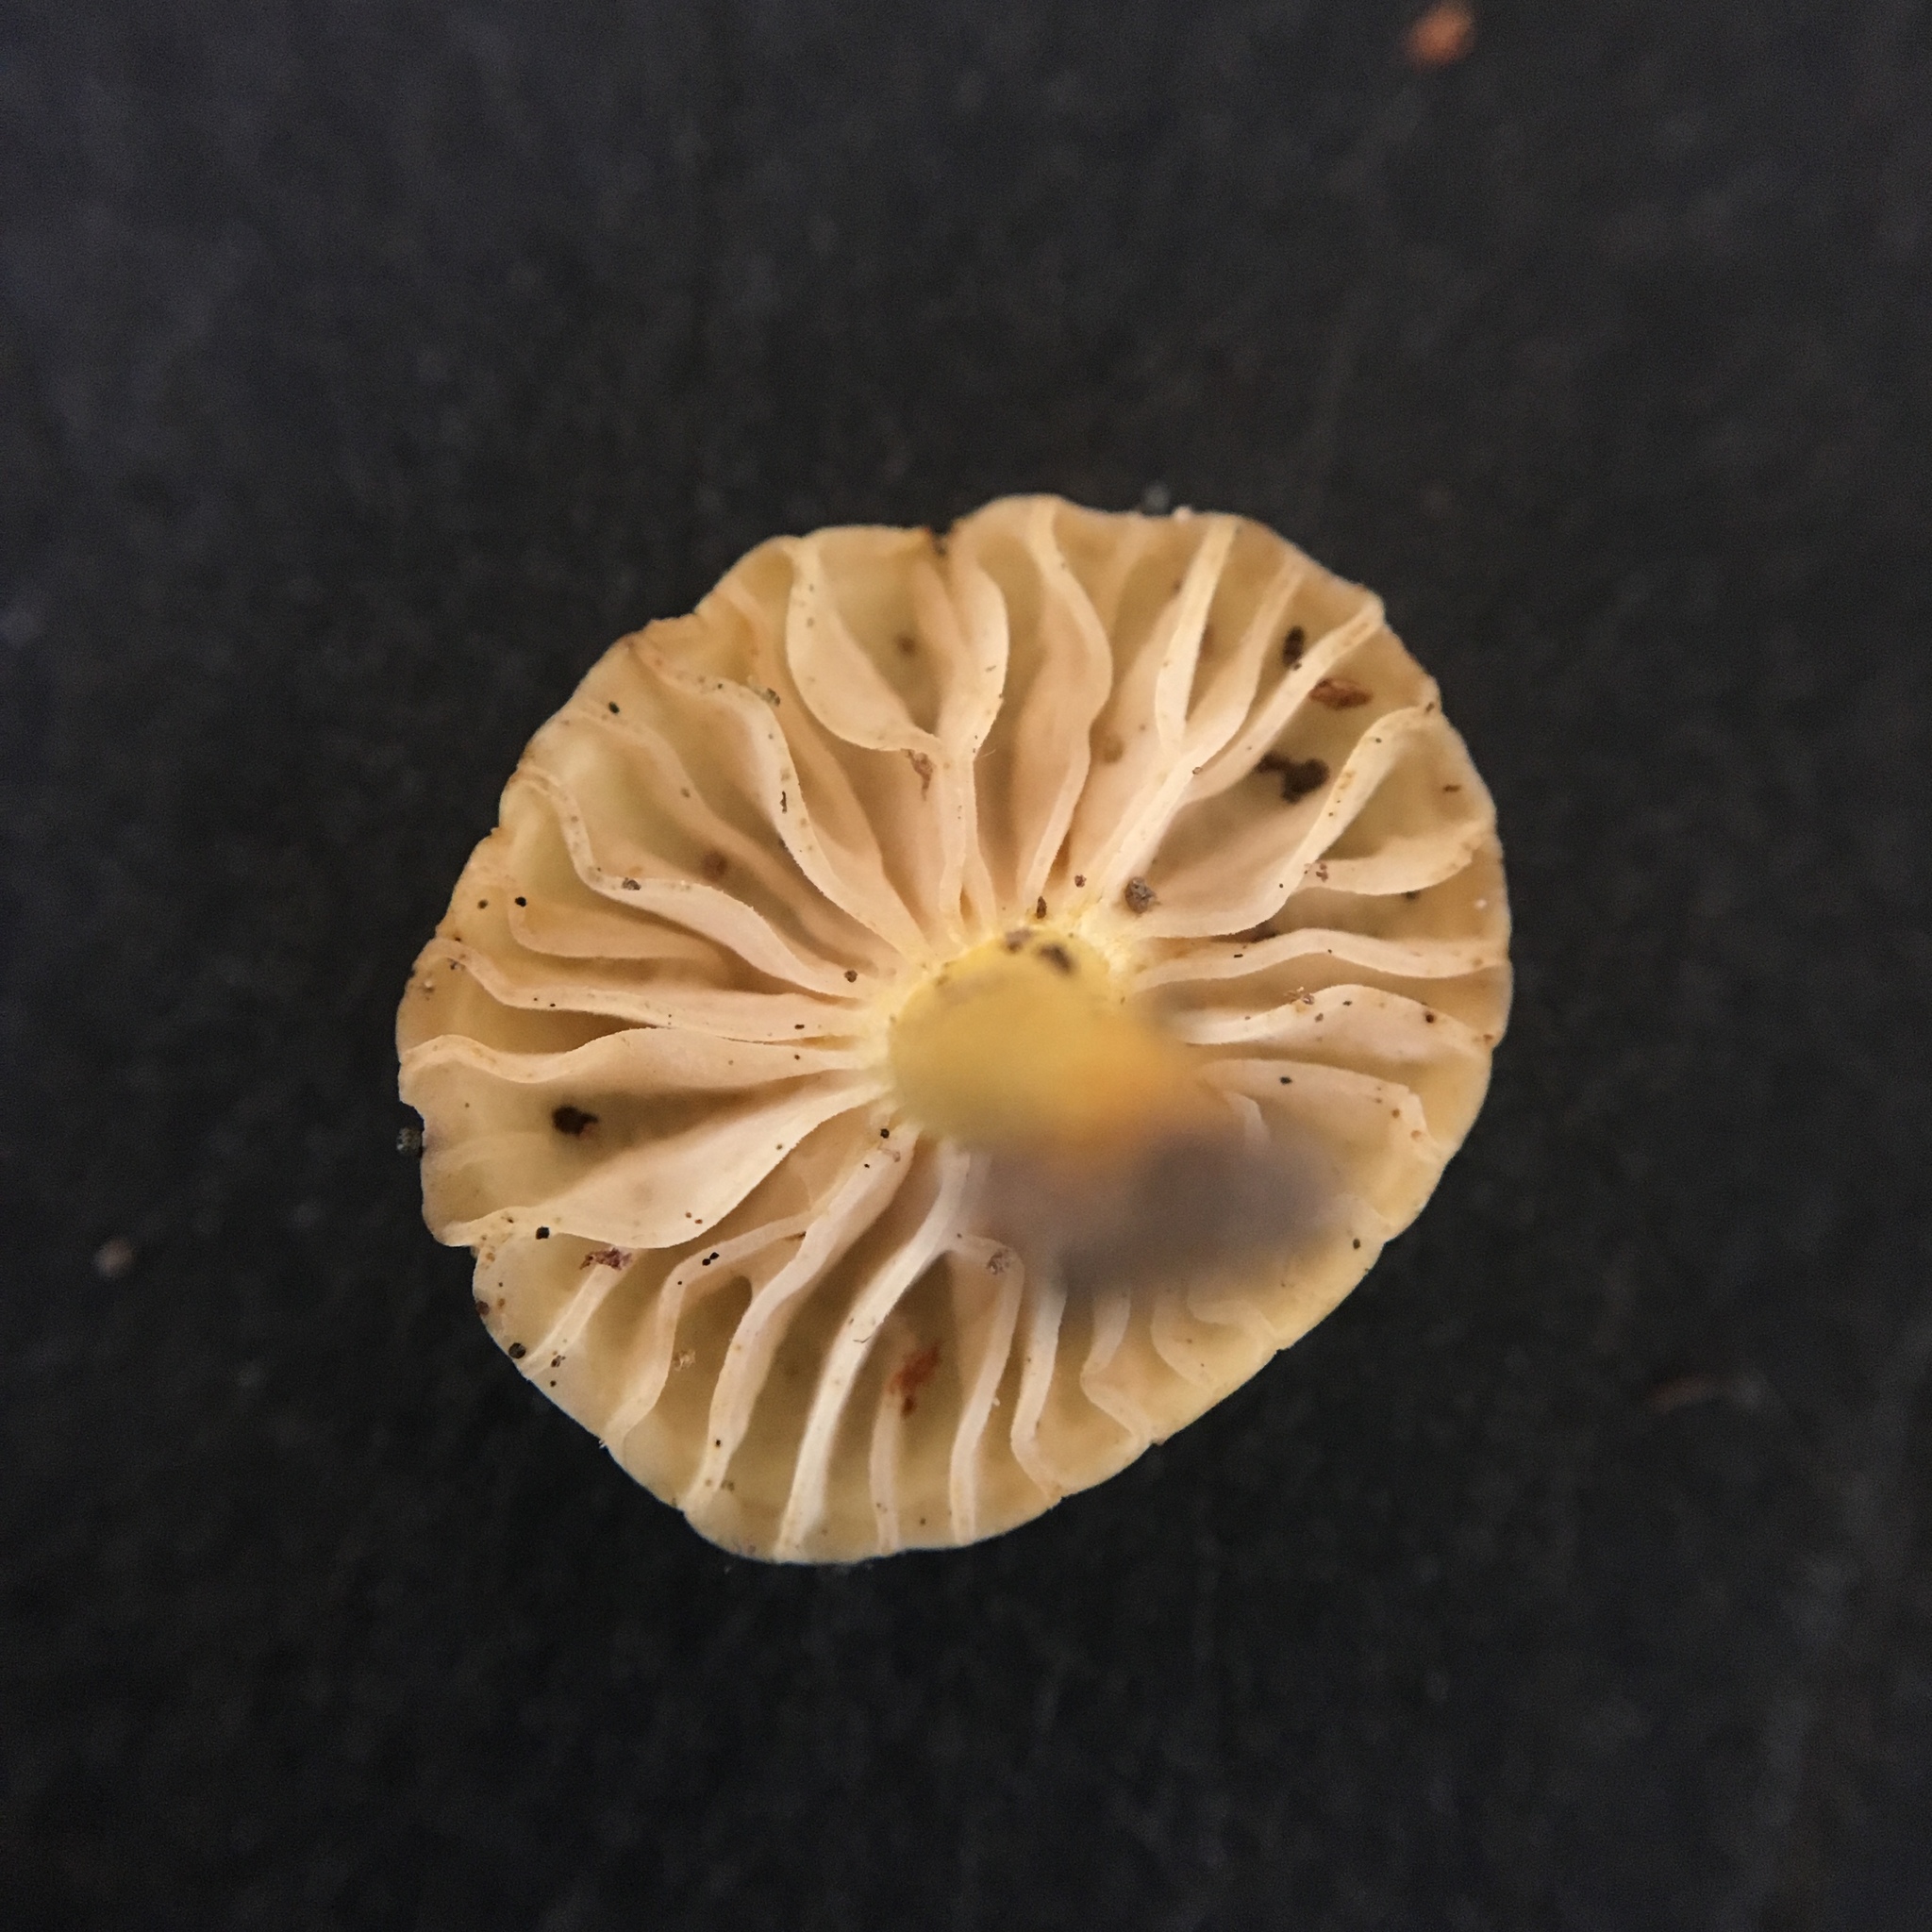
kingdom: Fungi
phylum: Basidiomycota
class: Agaricomycetes
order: Agaricales
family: Pluteaceae
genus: Pluteus
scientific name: Pluteus chrysophlebius
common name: Yellow deer mushroom
